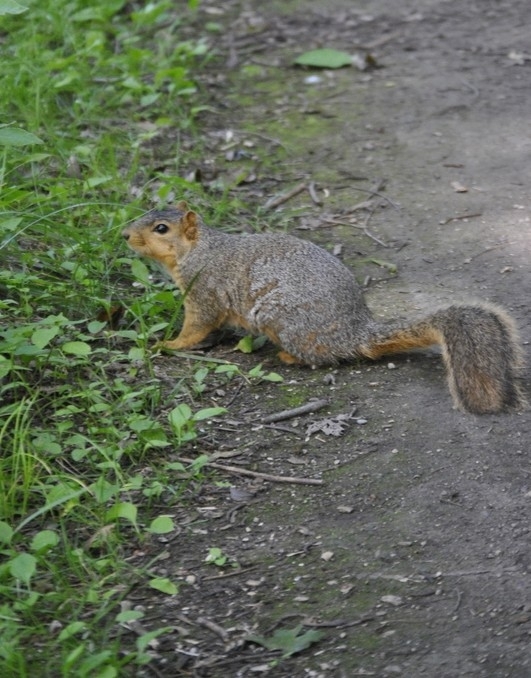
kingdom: Animalia
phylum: Chordata
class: Mammalia
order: Rodentia
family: Sciuridae
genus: Sciurus
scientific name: Sciurus niger
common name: Fox squirrel
